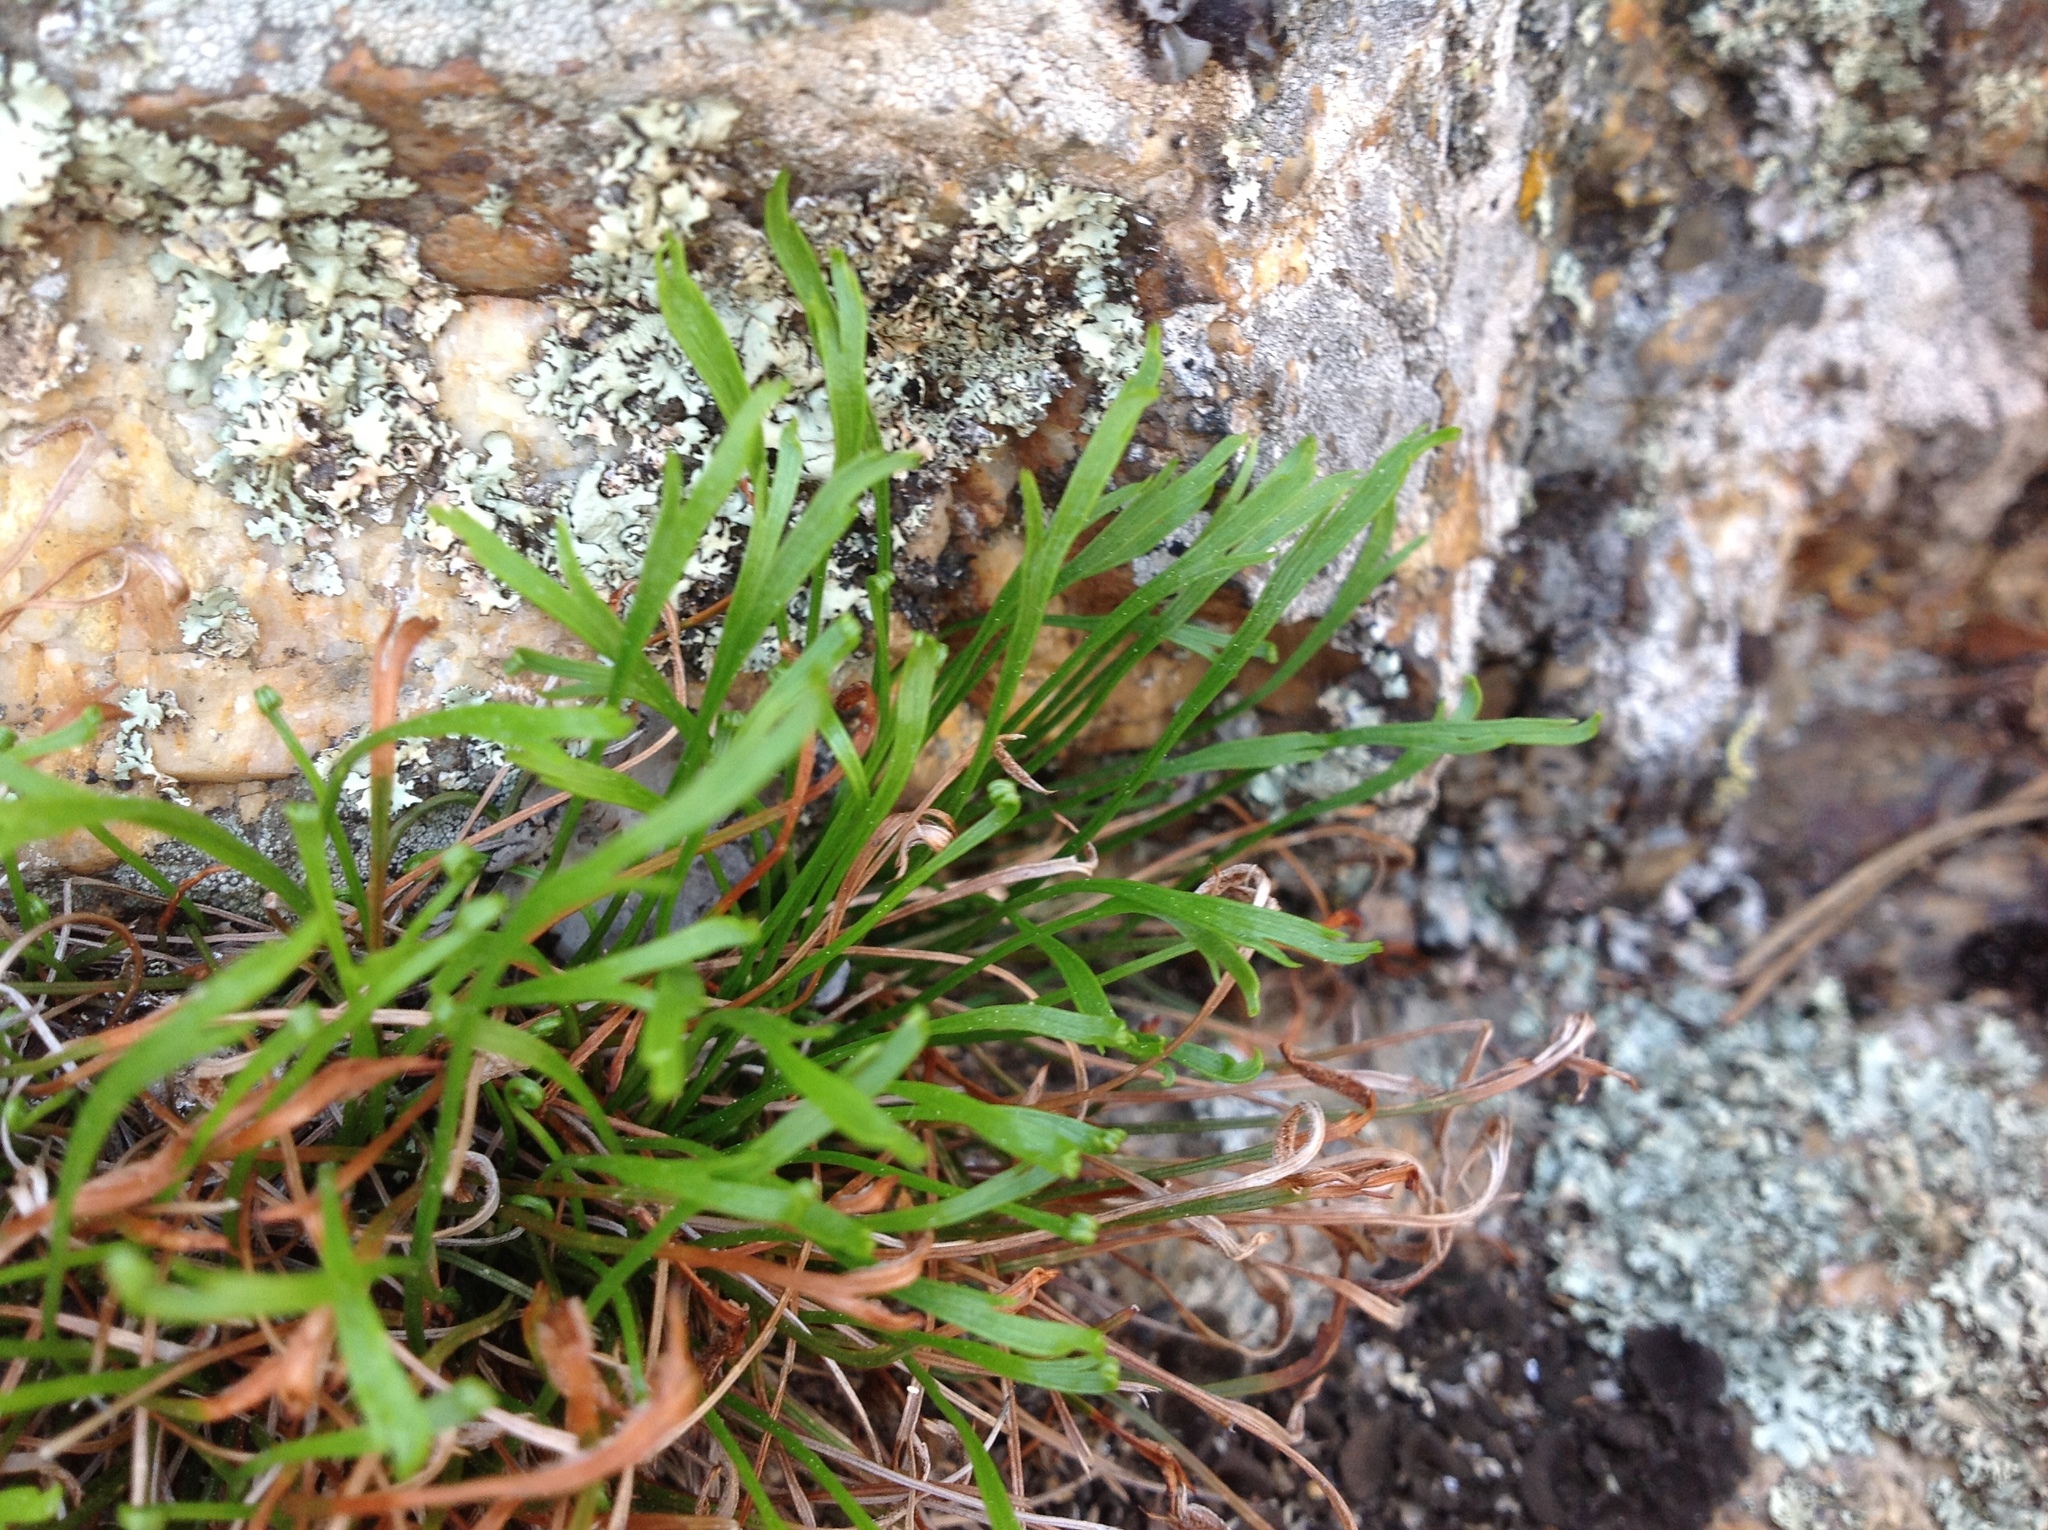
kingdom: Plantae
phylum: Tracheophyta
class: Polypodiopsida
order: Polypodiales
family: Aspleniaceae
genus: Asplenium
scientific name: Asplenium septentrionale
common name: Forked spleenwort
